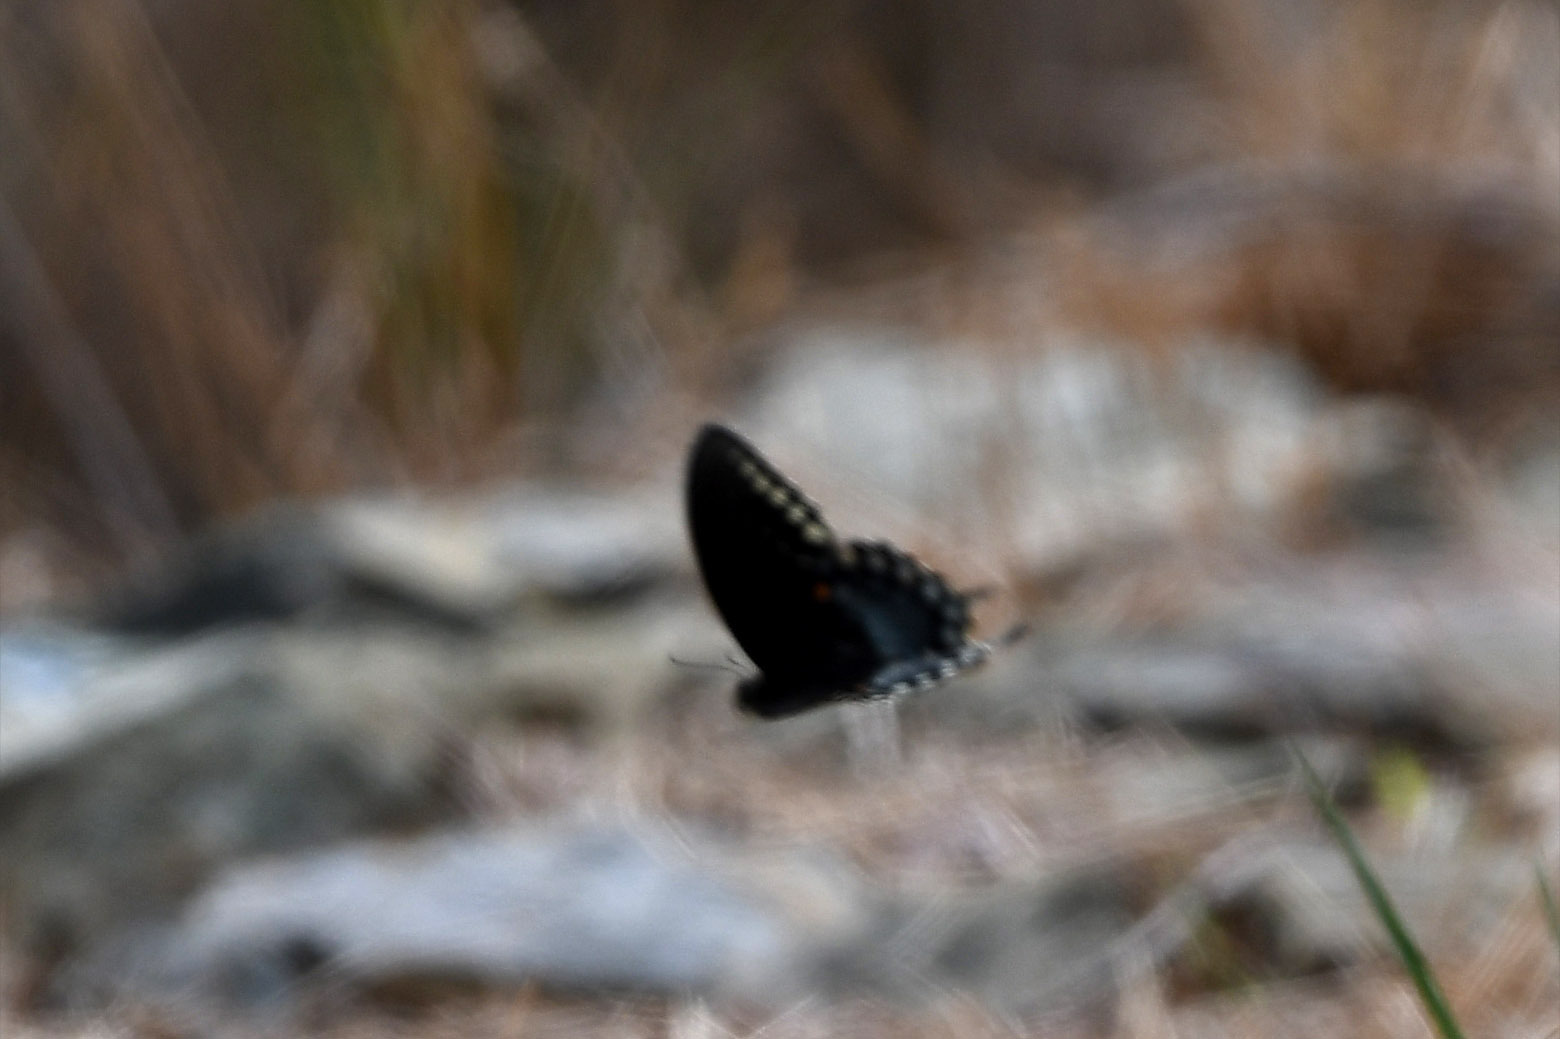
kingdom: Animalia
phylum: Arthropoda
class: Insecta
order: Lepidoptera
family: Papilionidae
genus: Papilio
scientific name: Papilio troilus
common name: Spicebush swallowtail
